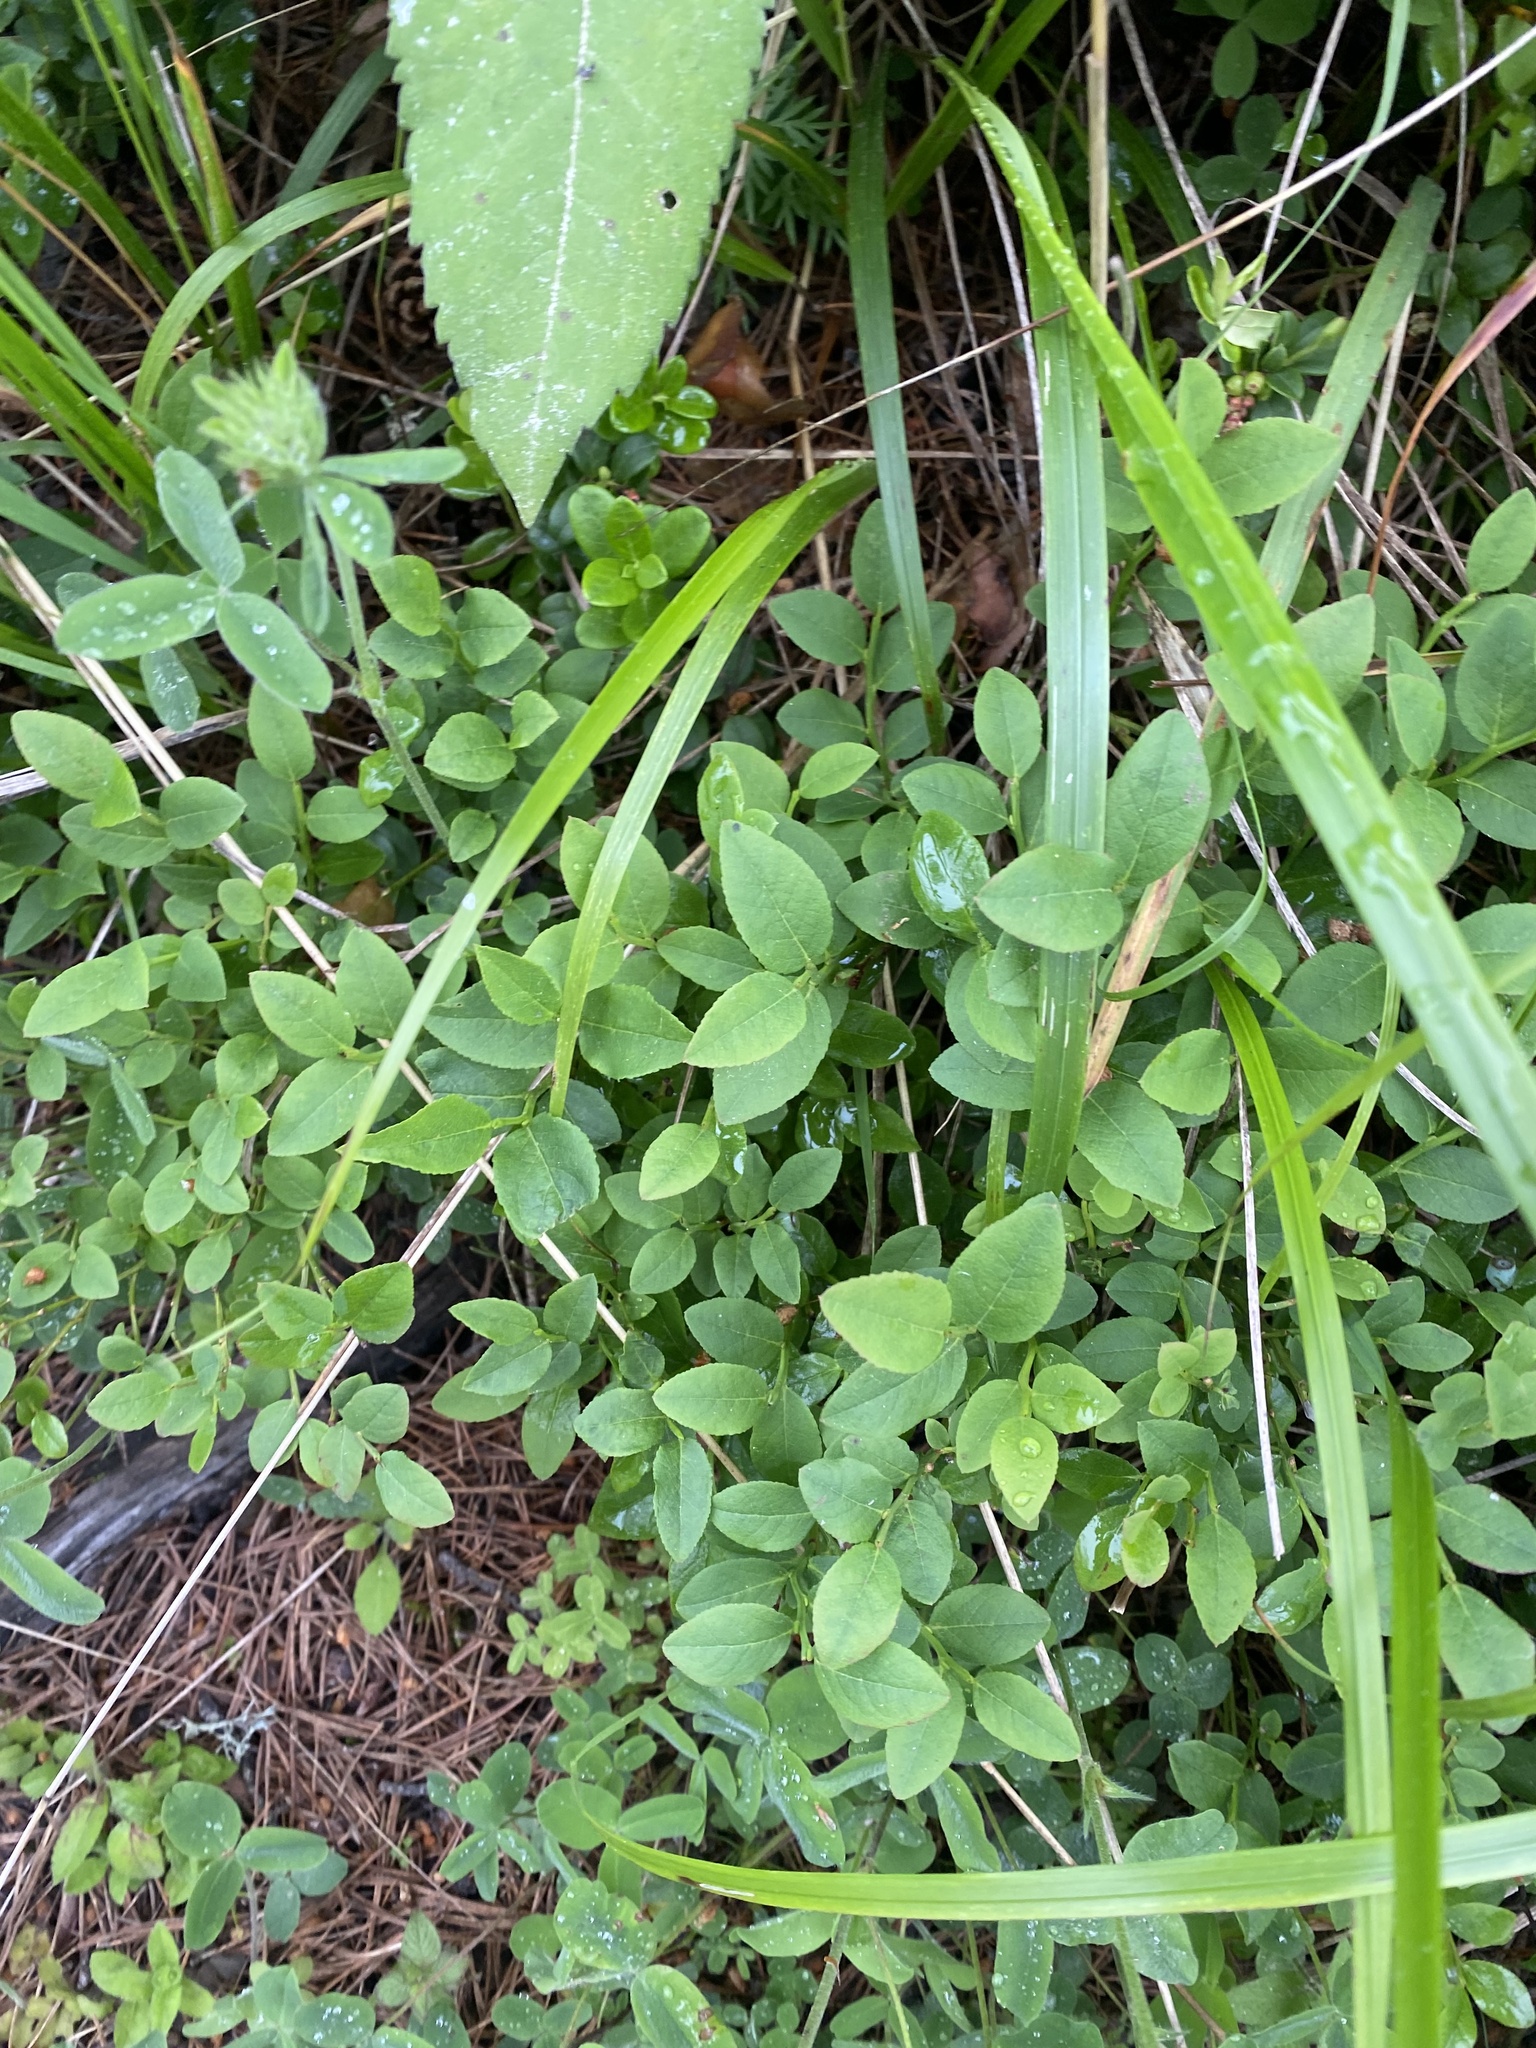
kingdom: Plantae
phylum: Tracheophyta
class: Magnoliopsida
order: Ericales
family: Ericaceae
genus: Vaccinium
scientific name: Vaccinium myrtillus
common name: Bilberry
